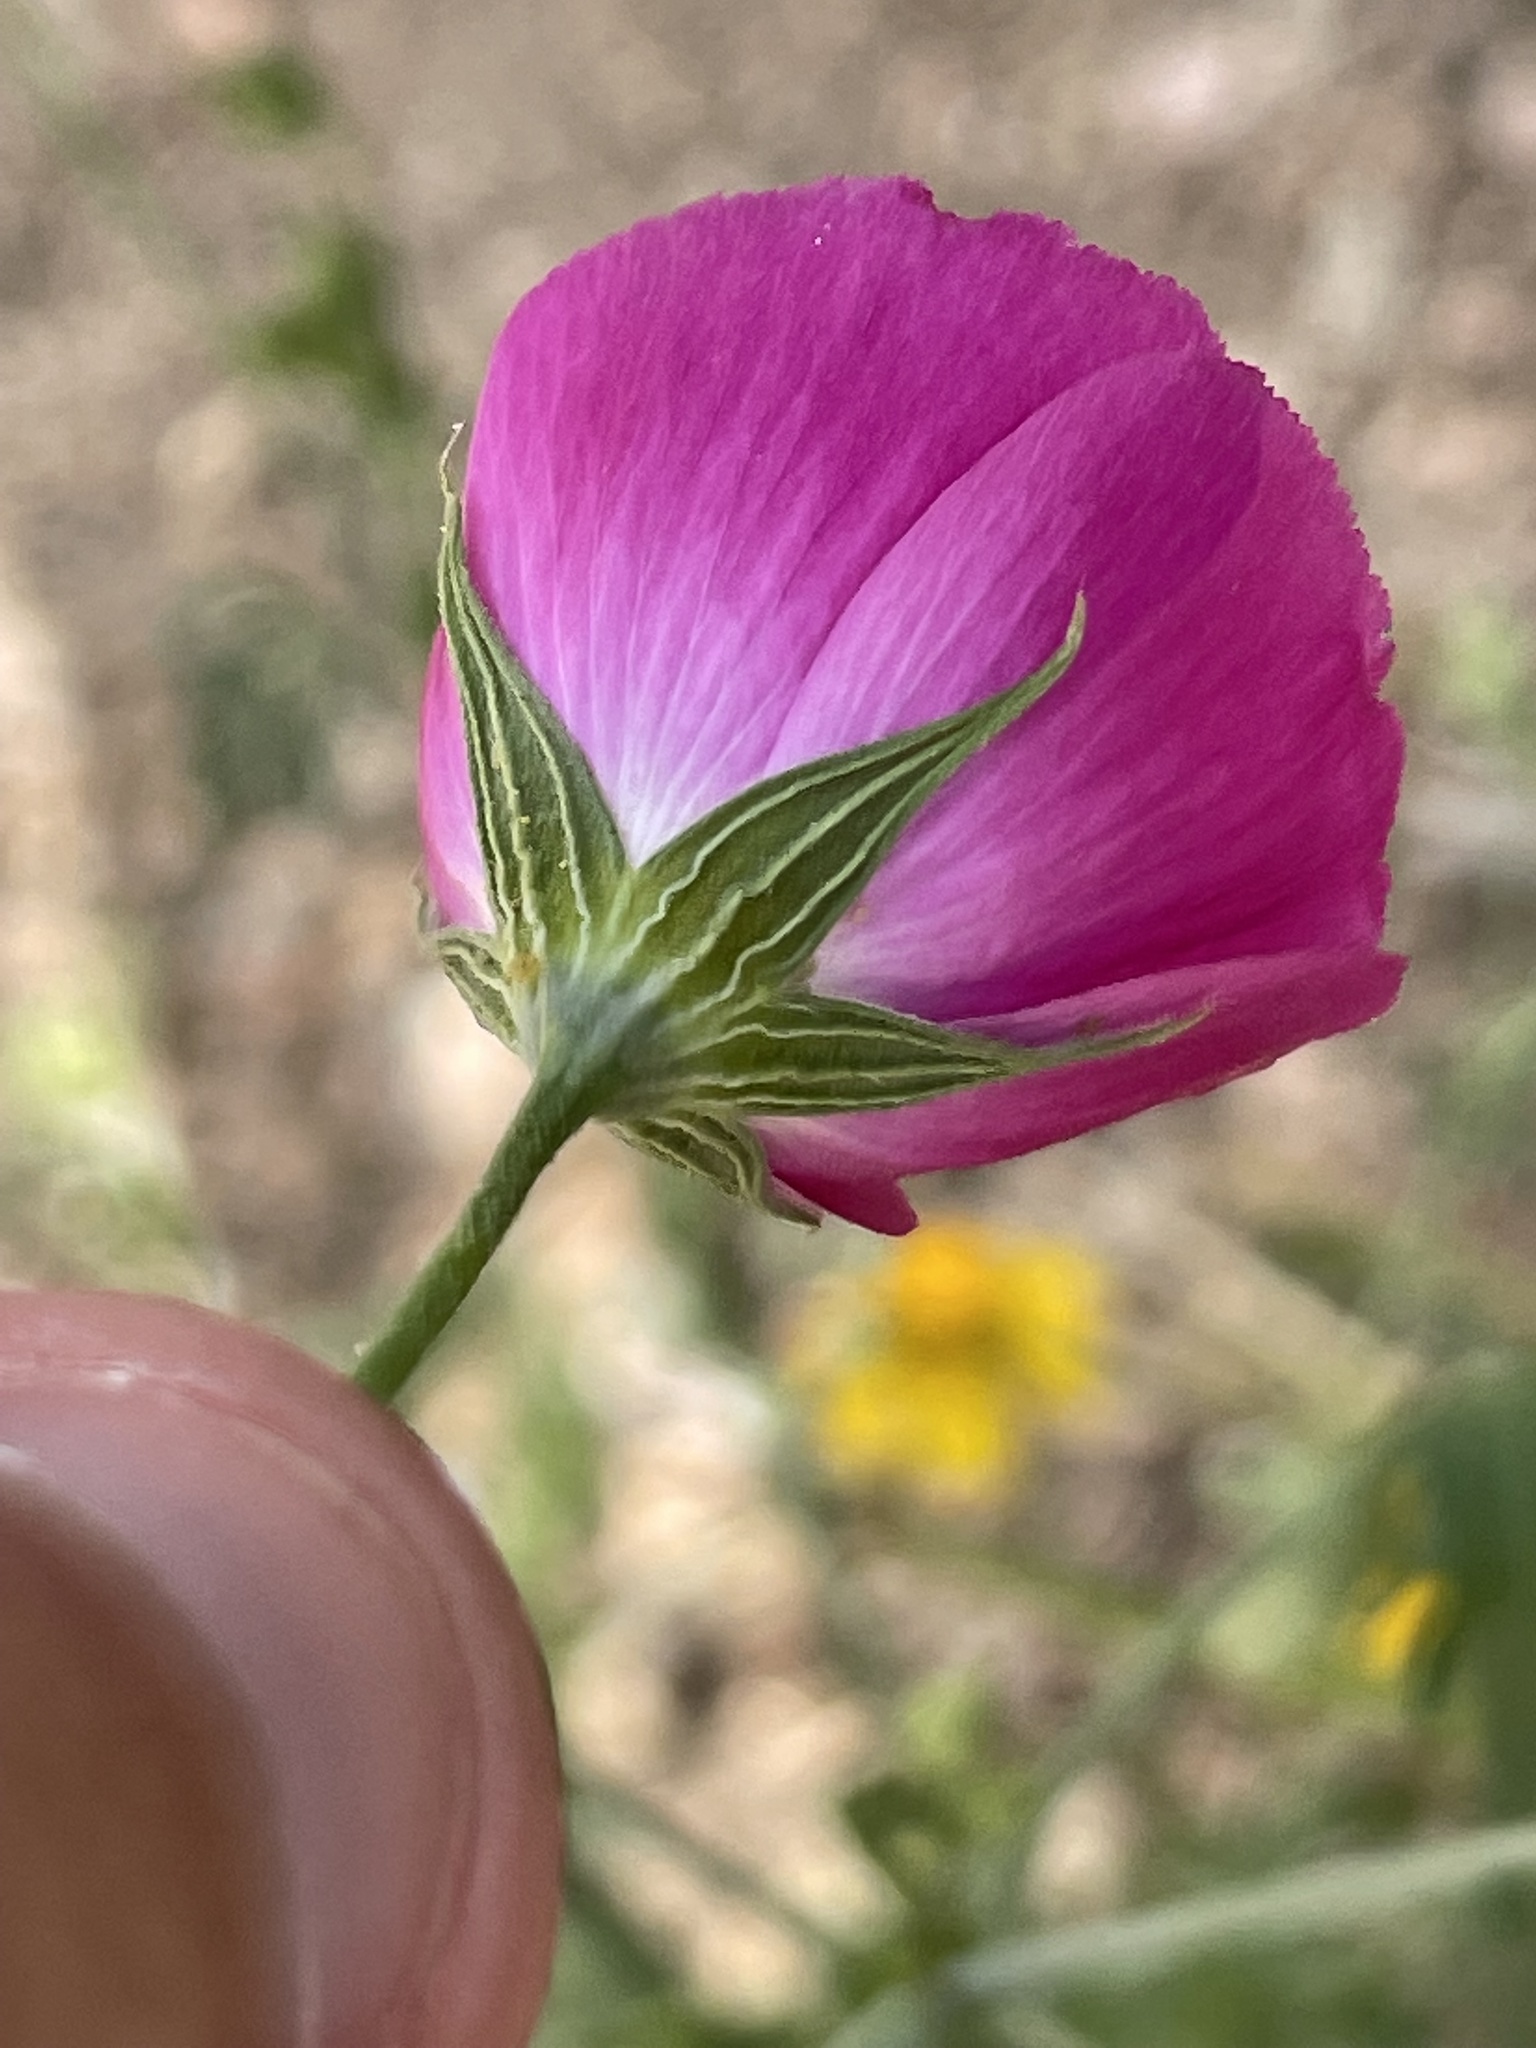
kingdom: Plantae
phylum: Tracheophyta
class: Magnoliopsida
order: Malvales
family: Malvaceae
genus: Callirhoe
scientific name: Callirhoe leiocarpa
